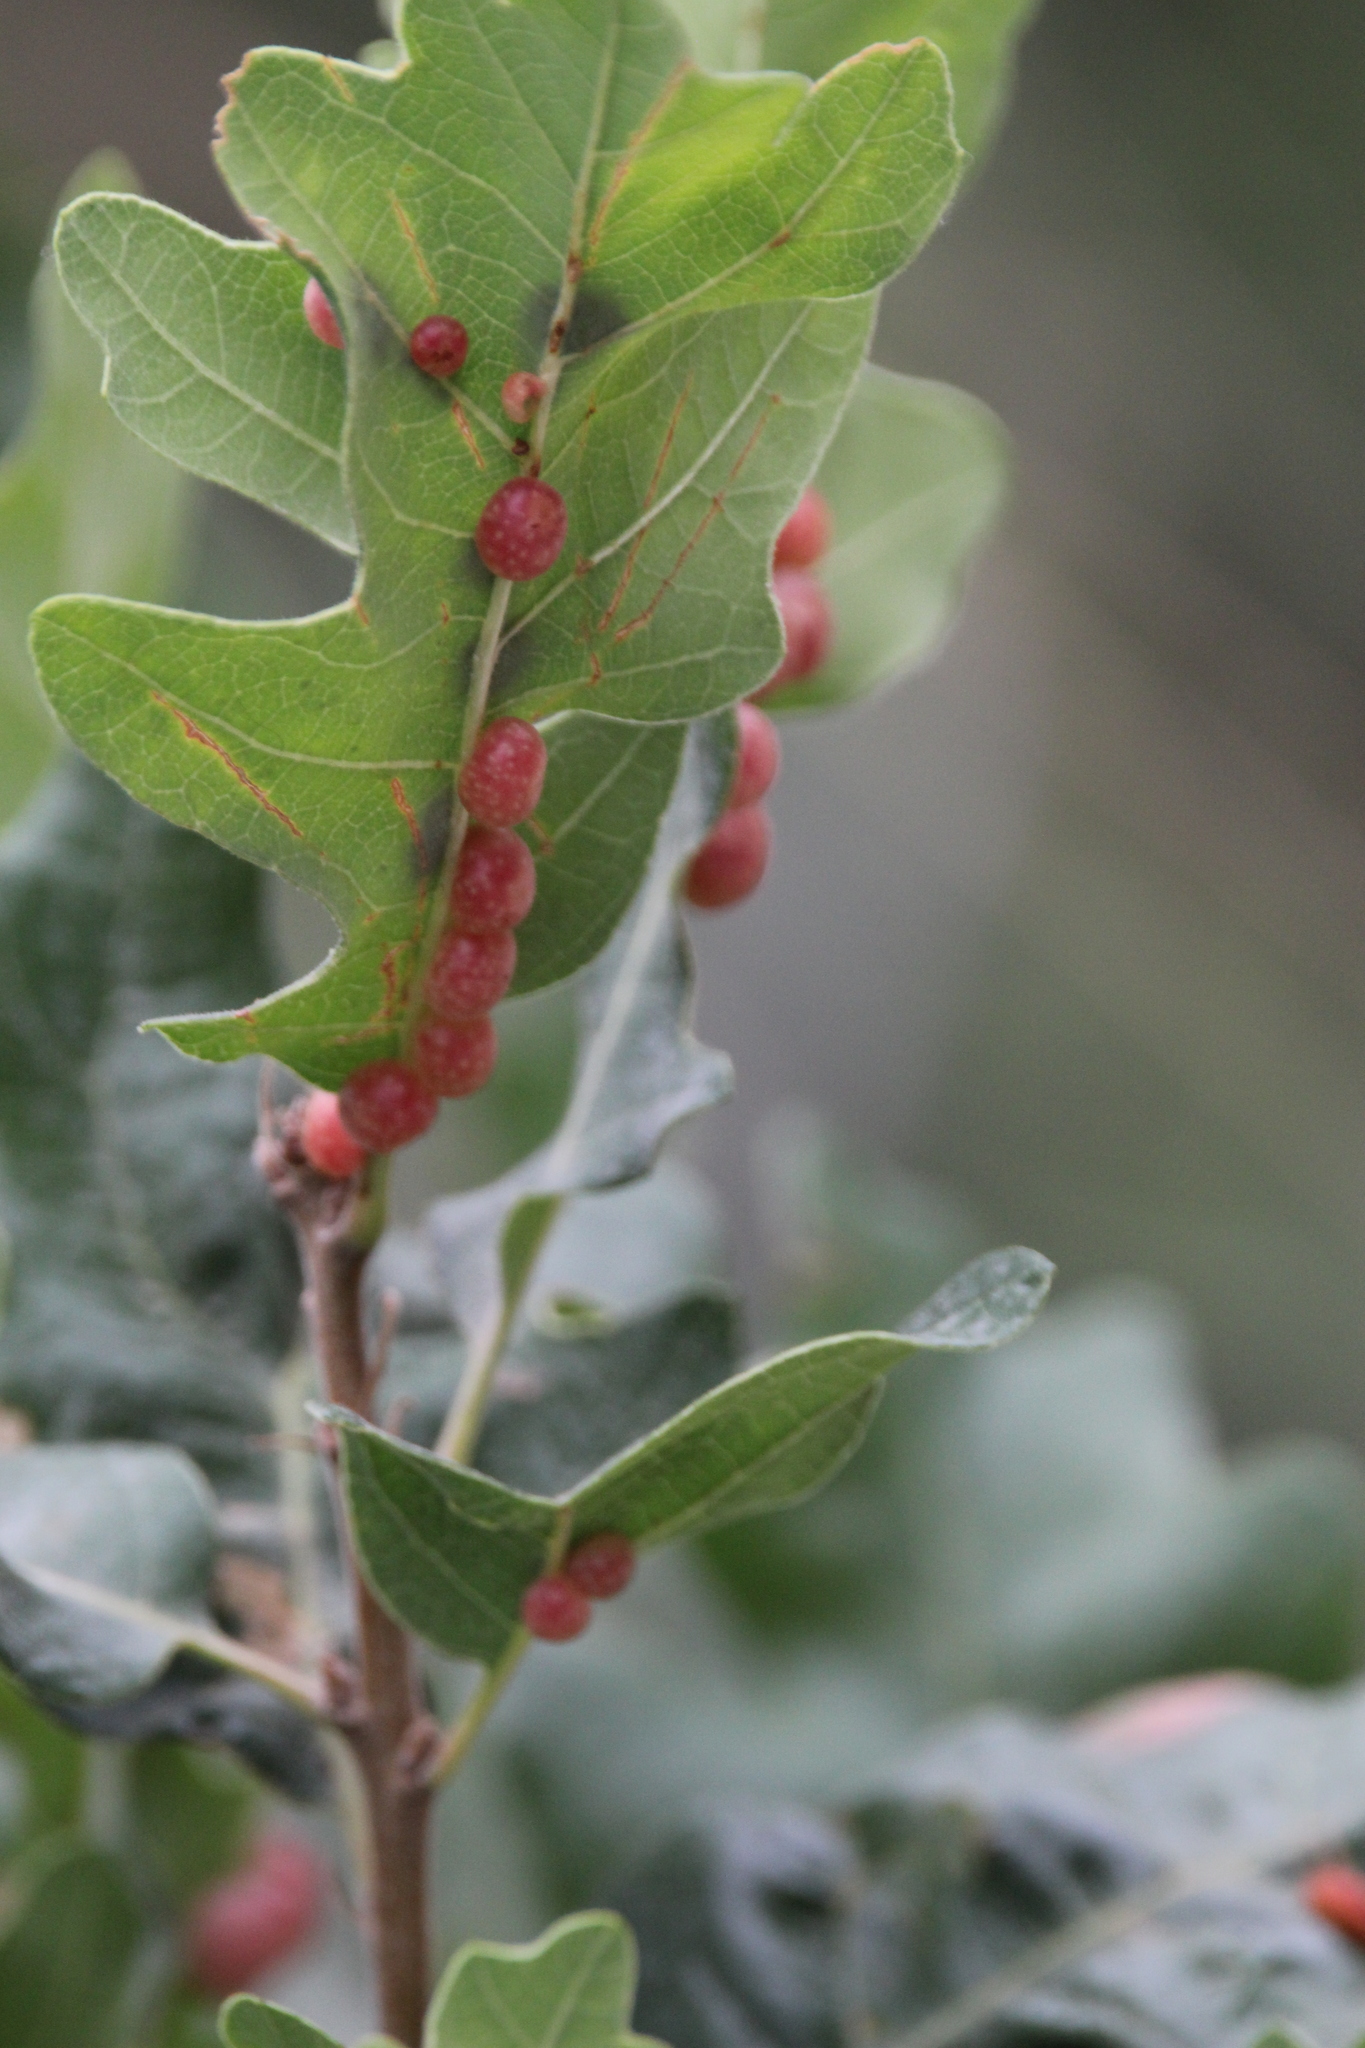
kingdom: Animalia
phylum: Arthropoda
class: Insecta
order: Hymenoptera
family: Cynipidae
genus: Trigonaspis
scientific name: Trigonaspis
